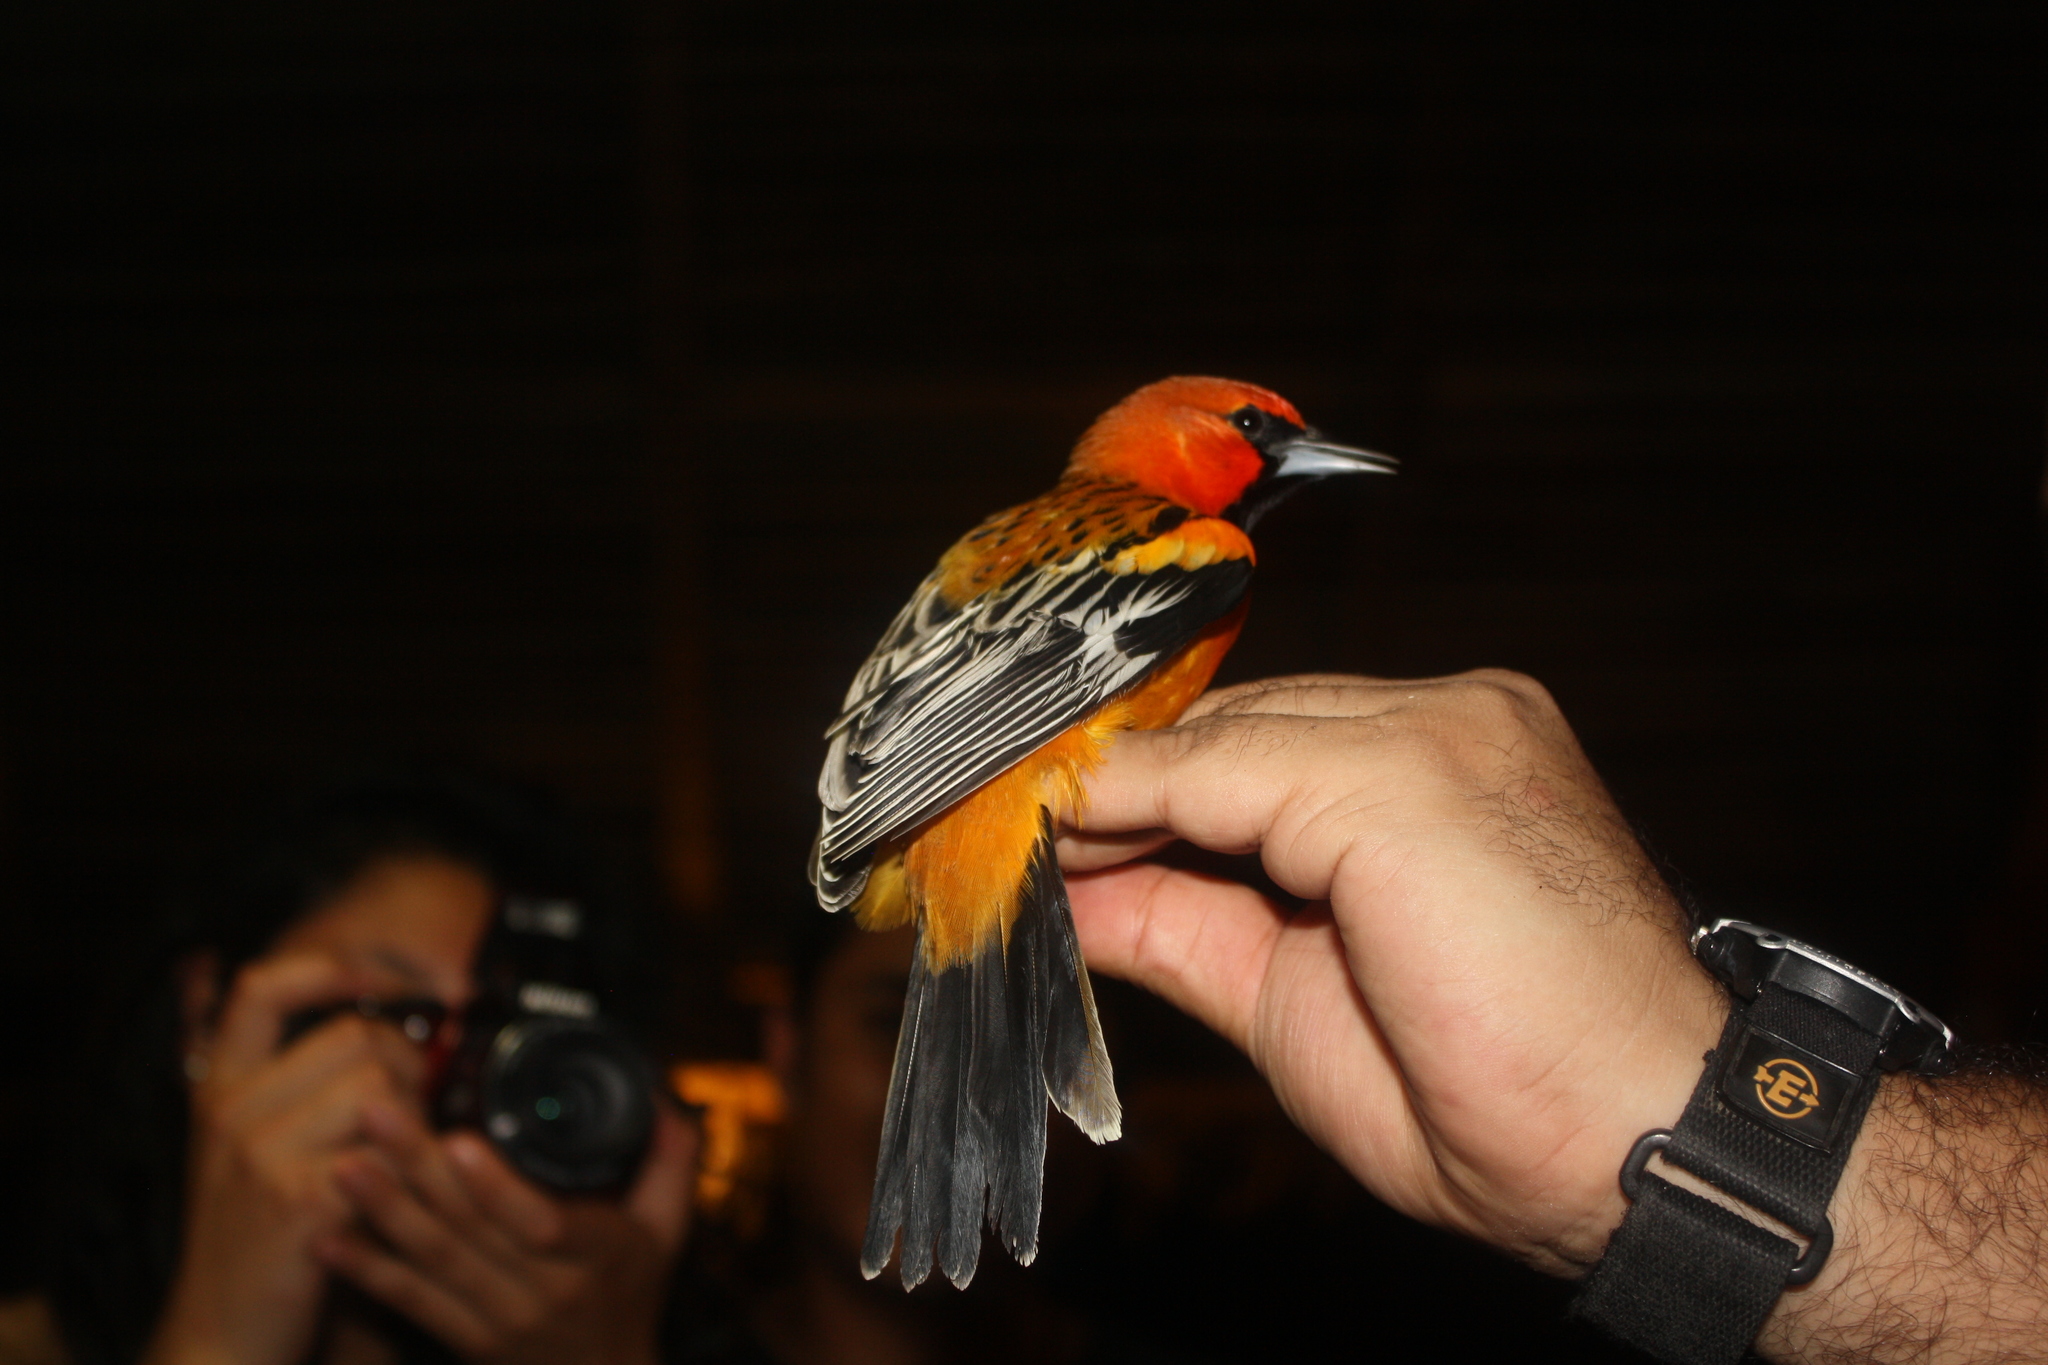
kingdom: Animalia
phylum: Chordata
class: Aves
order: Passeriformes
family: Icteridae
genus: Icterus
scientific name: Icterus pustulatus
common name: Streak-backed oriole
